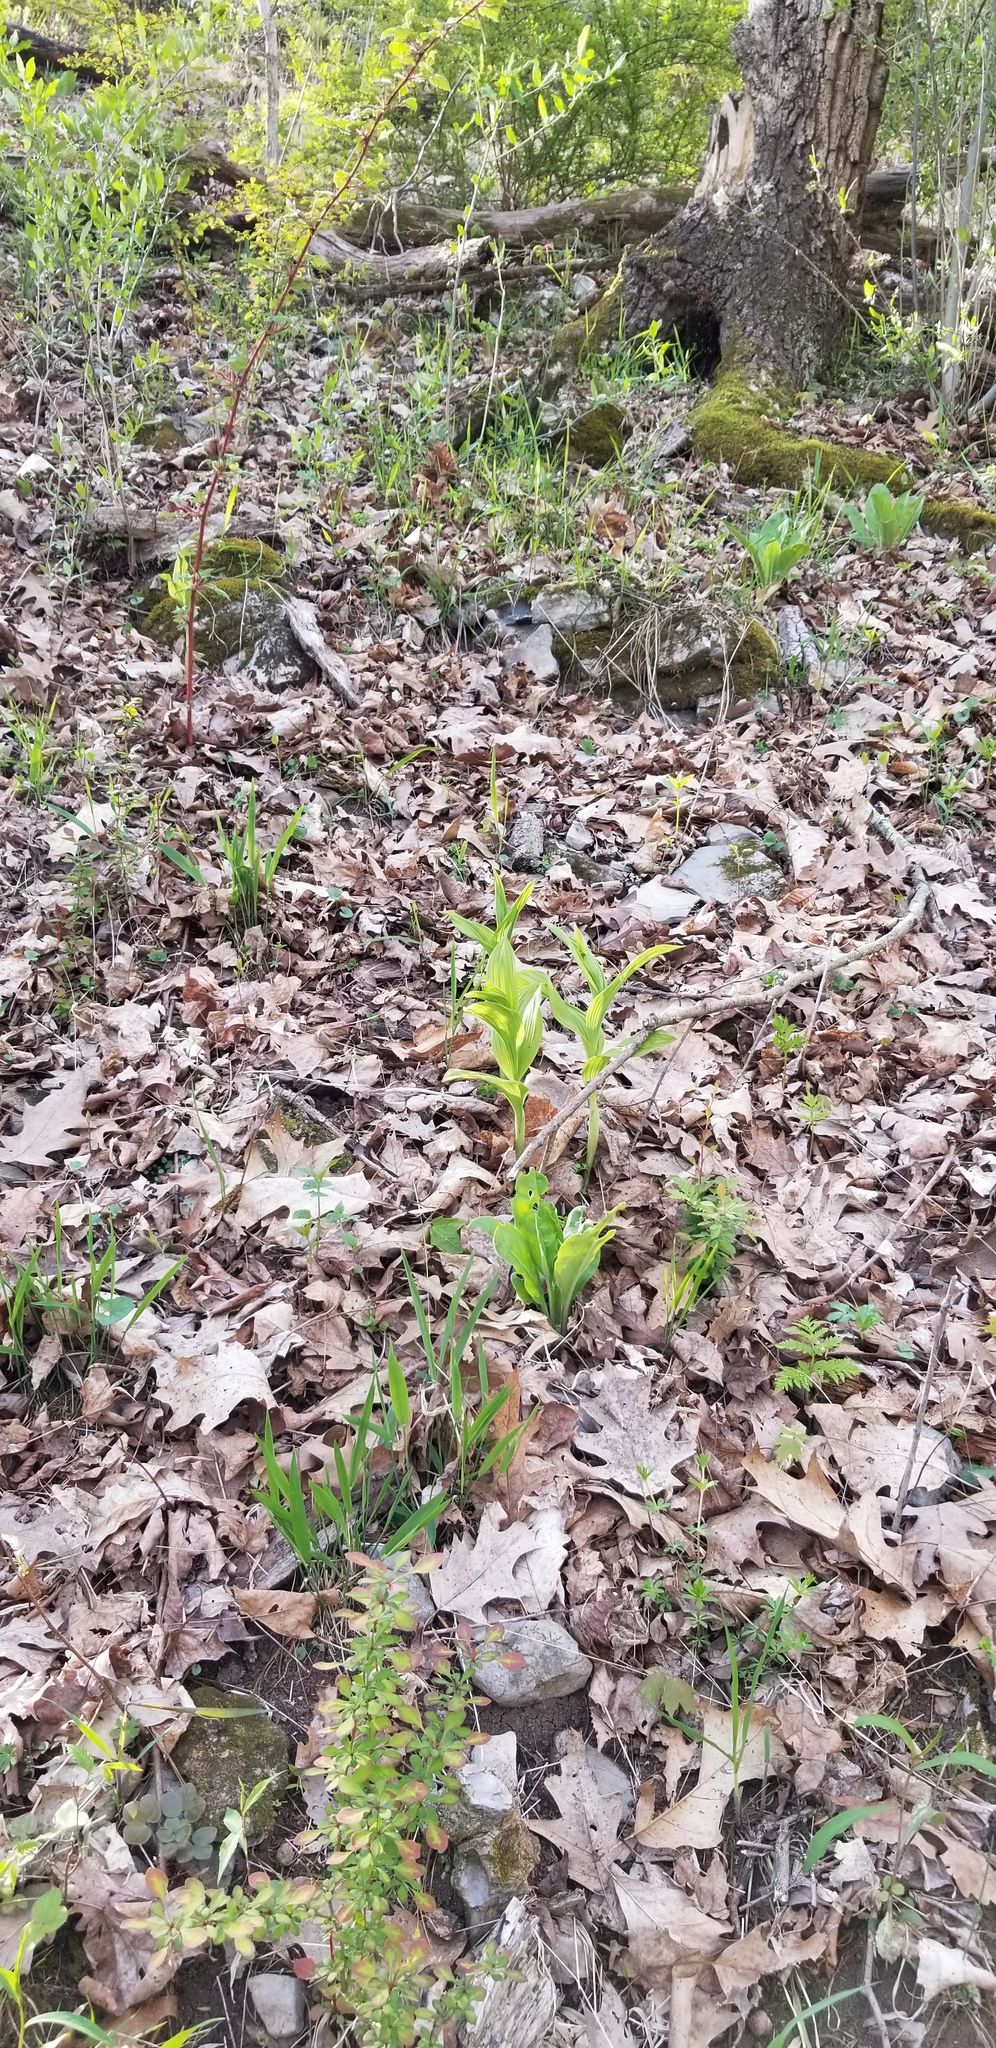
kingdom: Plantae
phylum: Tracheophyta
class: Liliopsida
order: Asparagales
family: Orchidaceae
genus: Cypripedium
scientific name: Cypripedium parviflorum
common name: American yellow lady's-slipper
